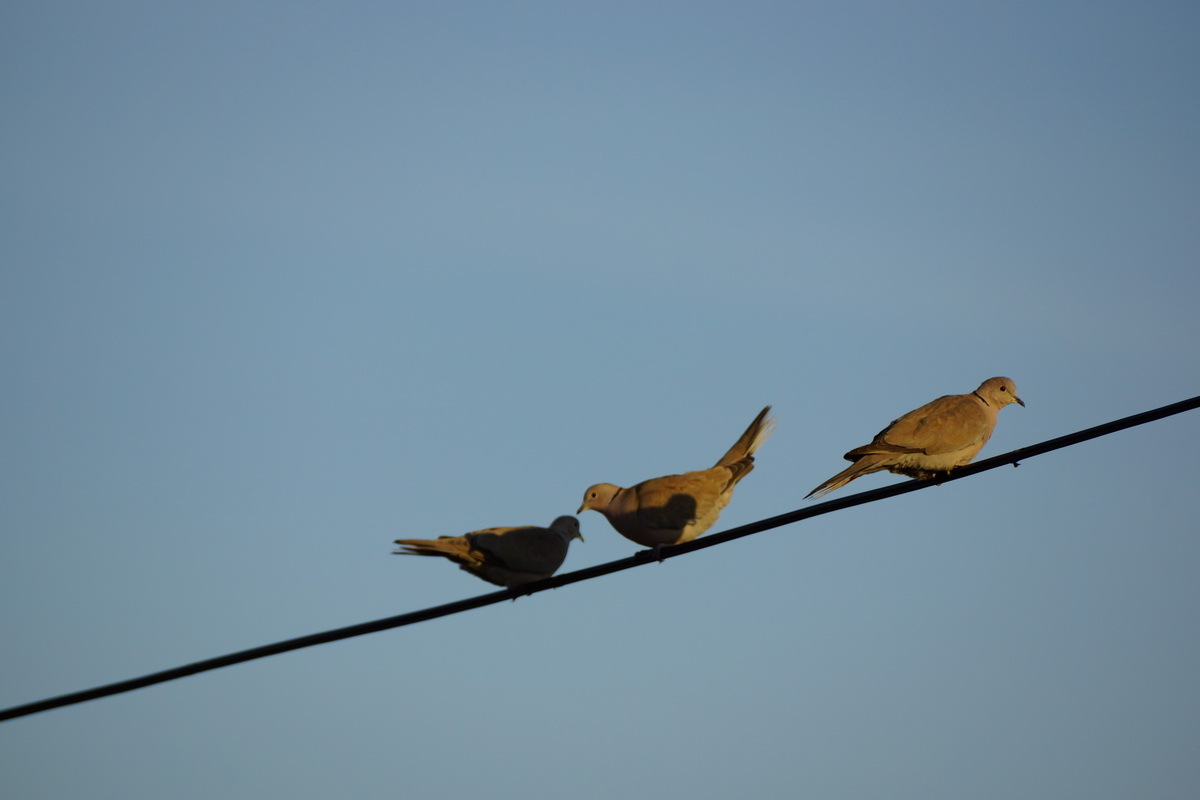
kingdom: Animalia
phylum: Chordata
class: Aves
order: Columbiformes
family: Columbidae
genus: Streptopelia
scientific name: Streptopelia decaocto
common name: Eurasian collared dove
